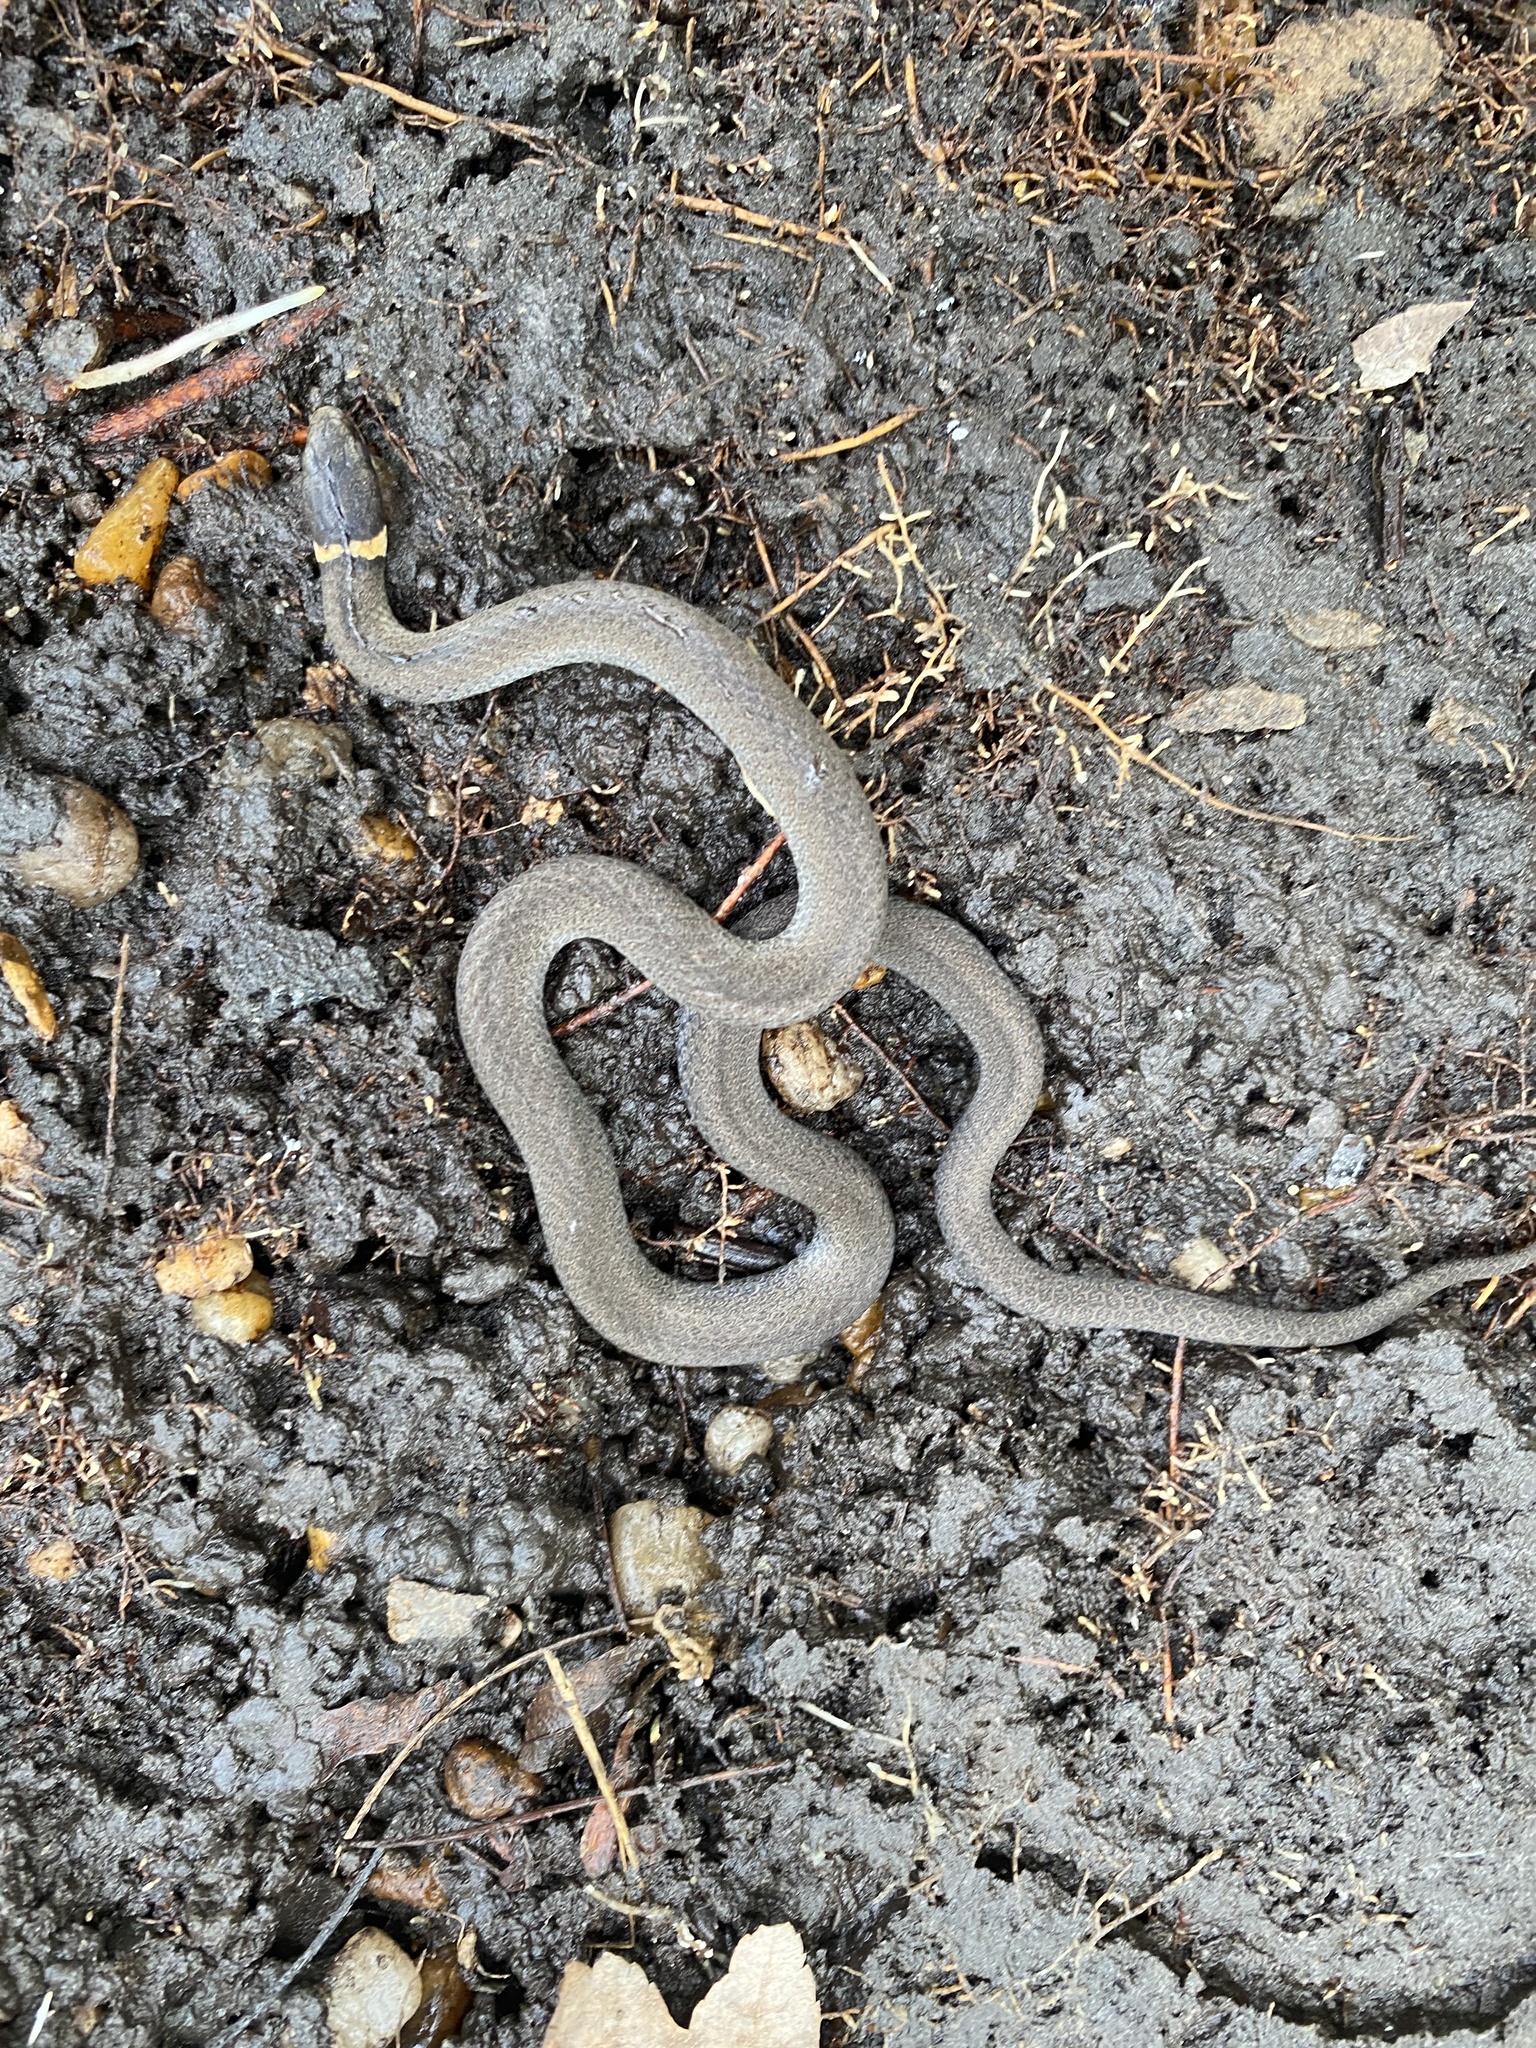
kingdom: Animalia
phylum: Chordata
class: Squamata
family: Colubridae
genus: Diadophis
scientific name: Diadophis punctatus
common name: Ringneck snake
